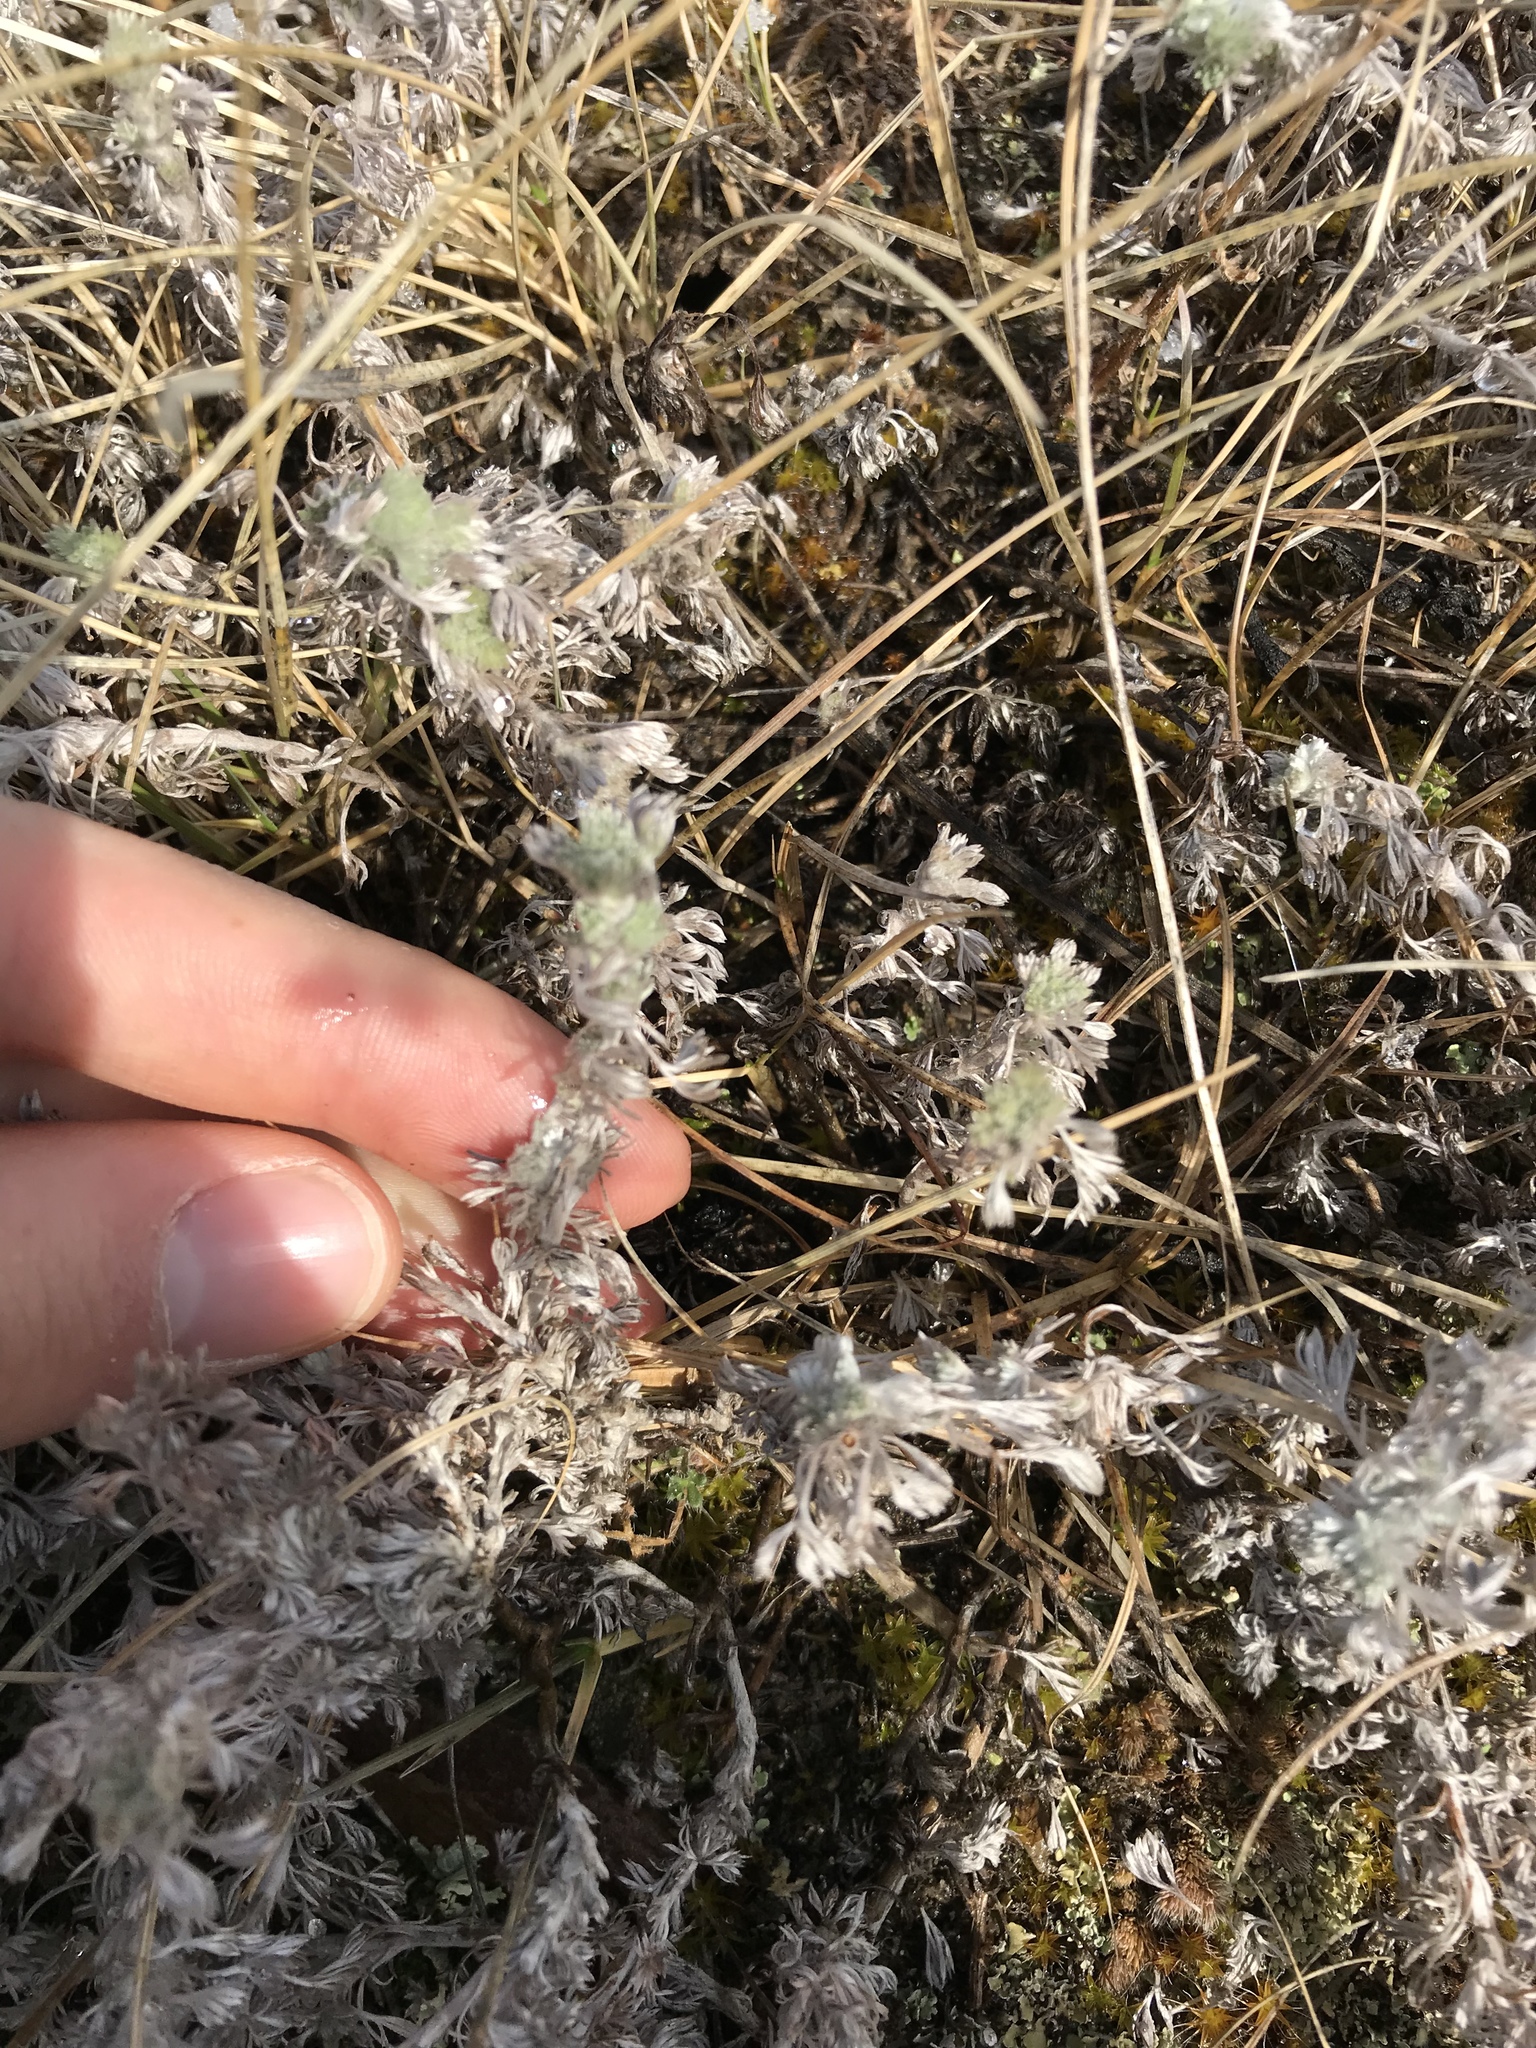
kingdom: Plantae
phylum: Tracheophyta
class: Magnoliopsida
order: Asterales
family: Asteraceae
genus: Artemisia
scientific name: Artemisia frigida
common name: Prairie sagewort
